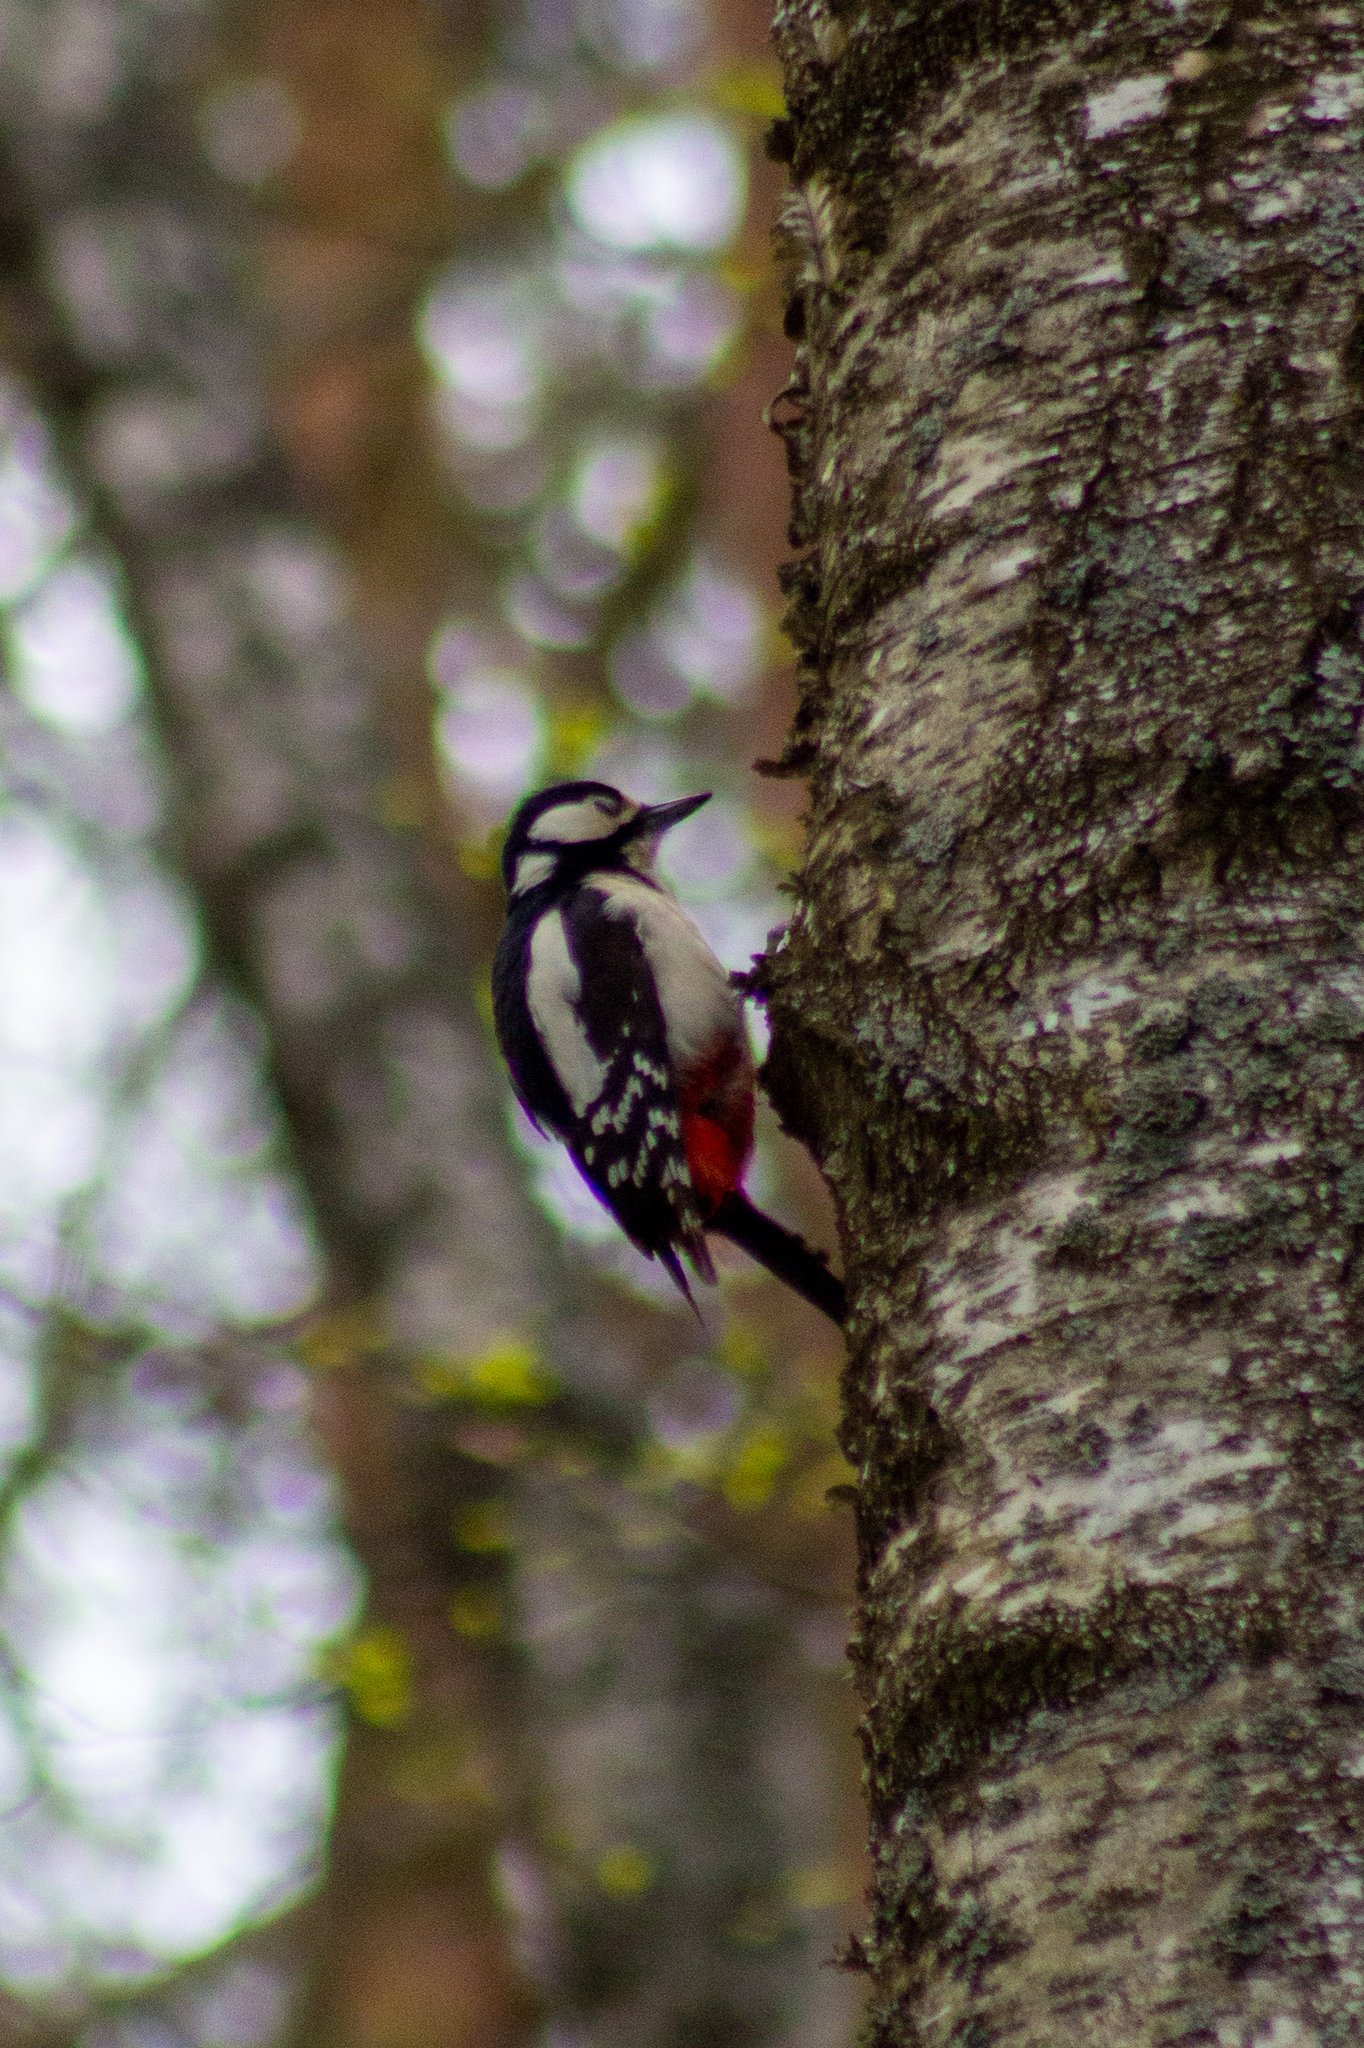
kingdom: Animalia
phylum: Chordata
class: Aves
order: Piciformes
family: Picidae
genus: Dendrocopos
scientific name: Dendrocopos major
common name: Great spotted woodpecker
